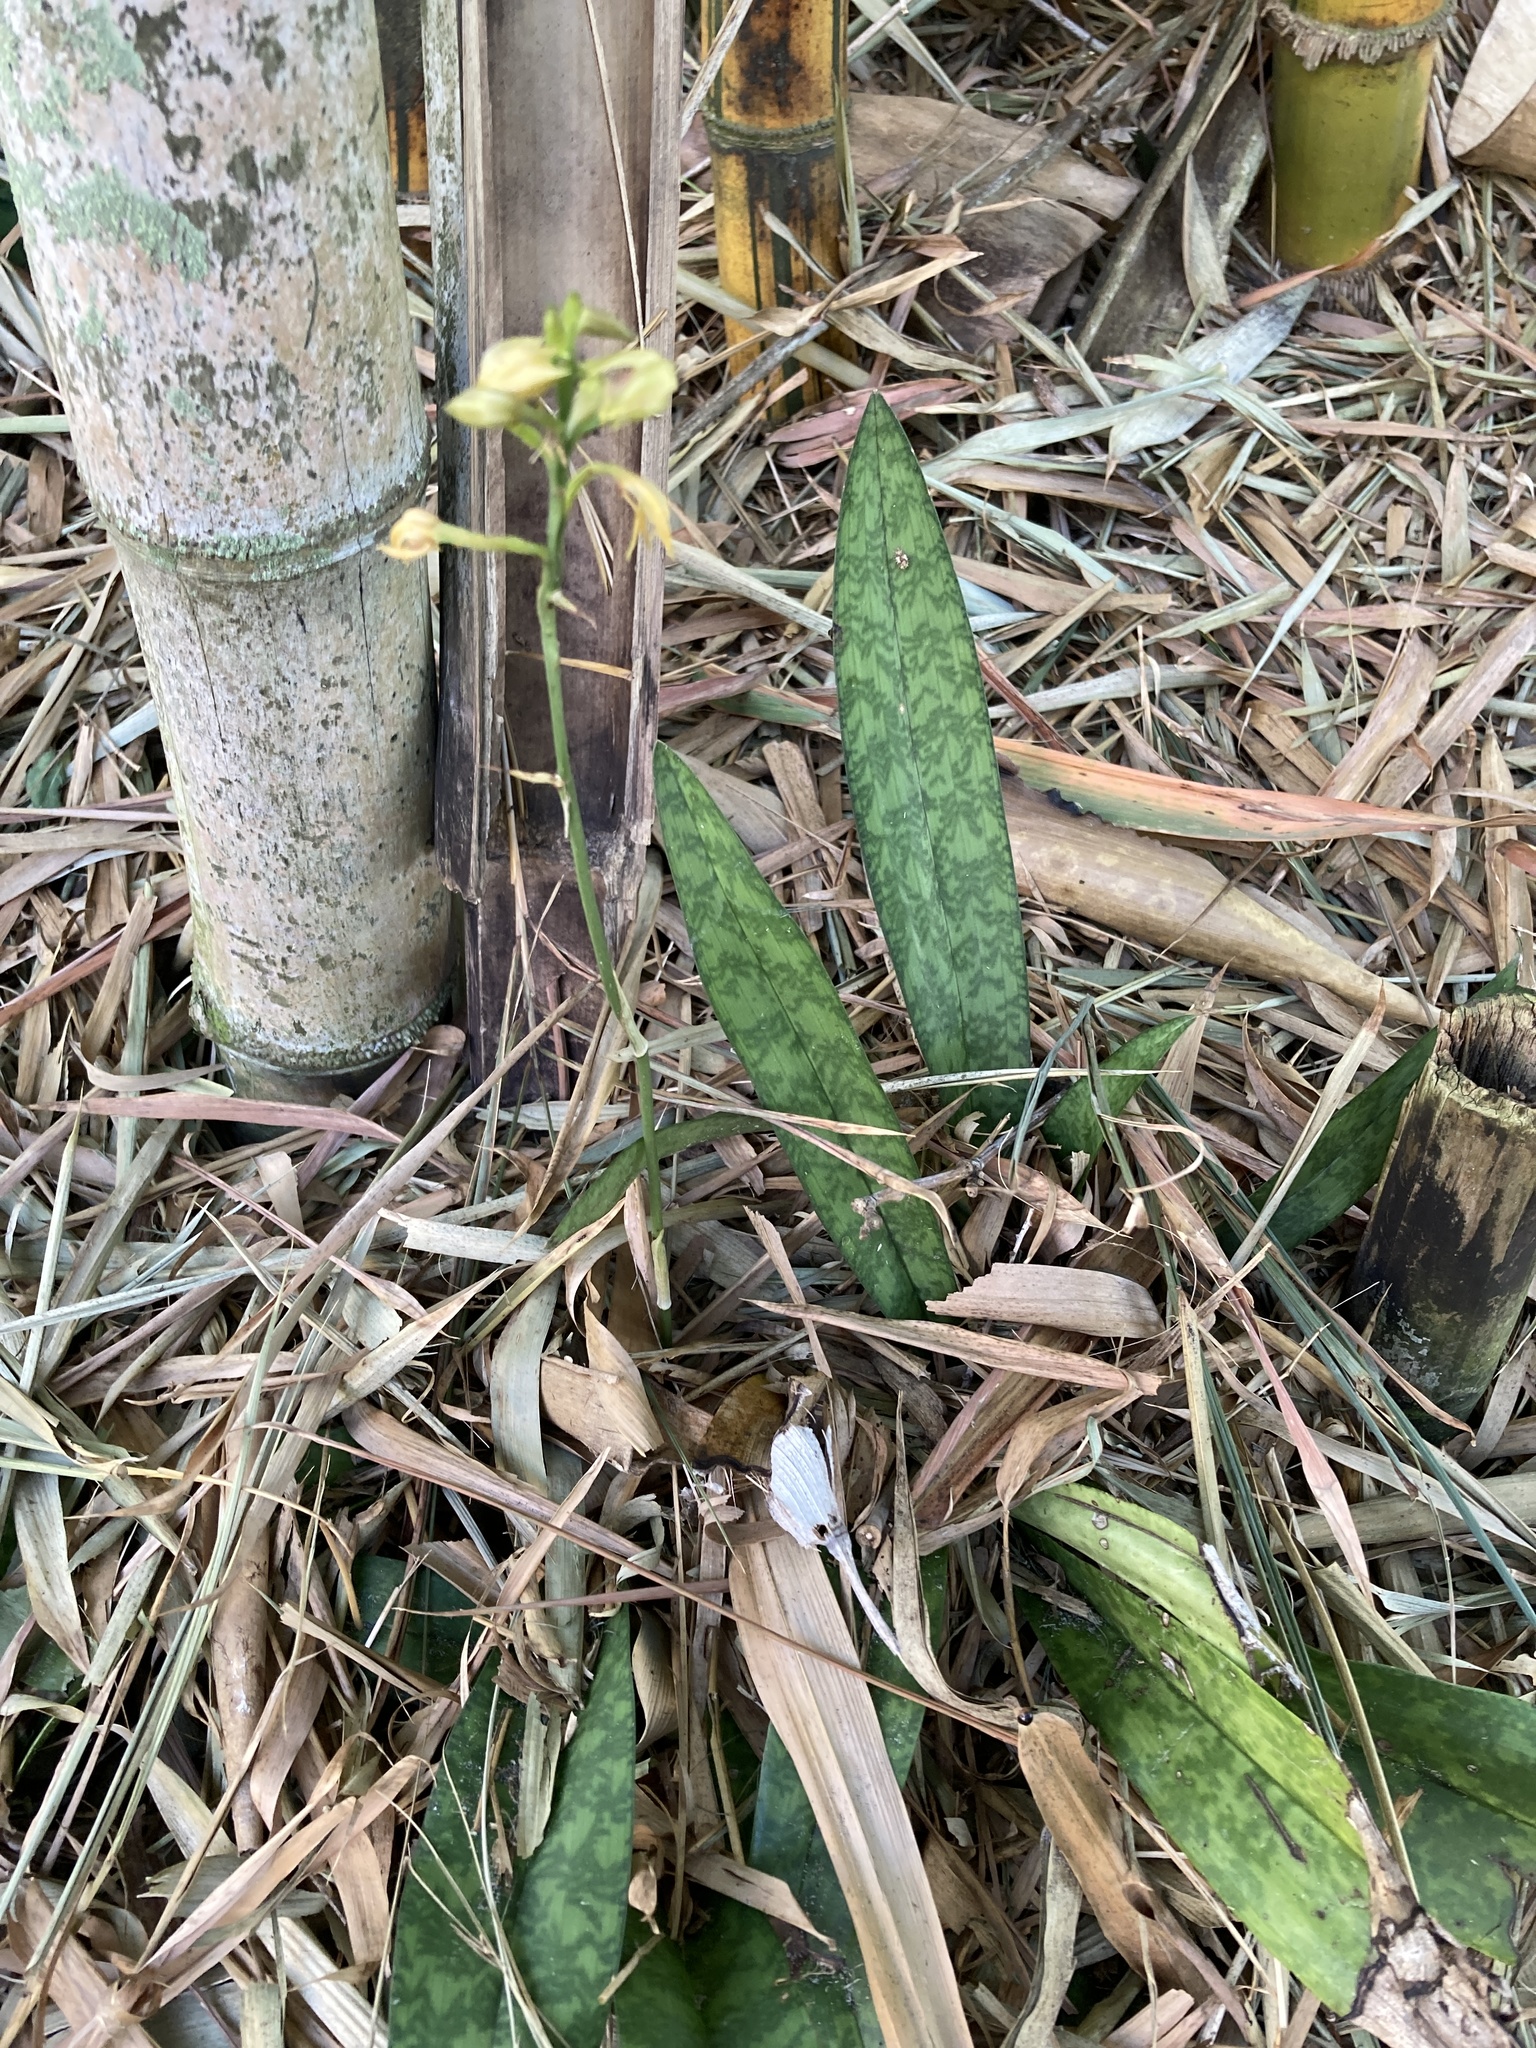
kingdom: Plantae
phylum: Tracheophyta
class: Liliopsida
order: Asparagales
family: Orchidaceae
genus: Eulophia
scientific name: Eulophia maculata
